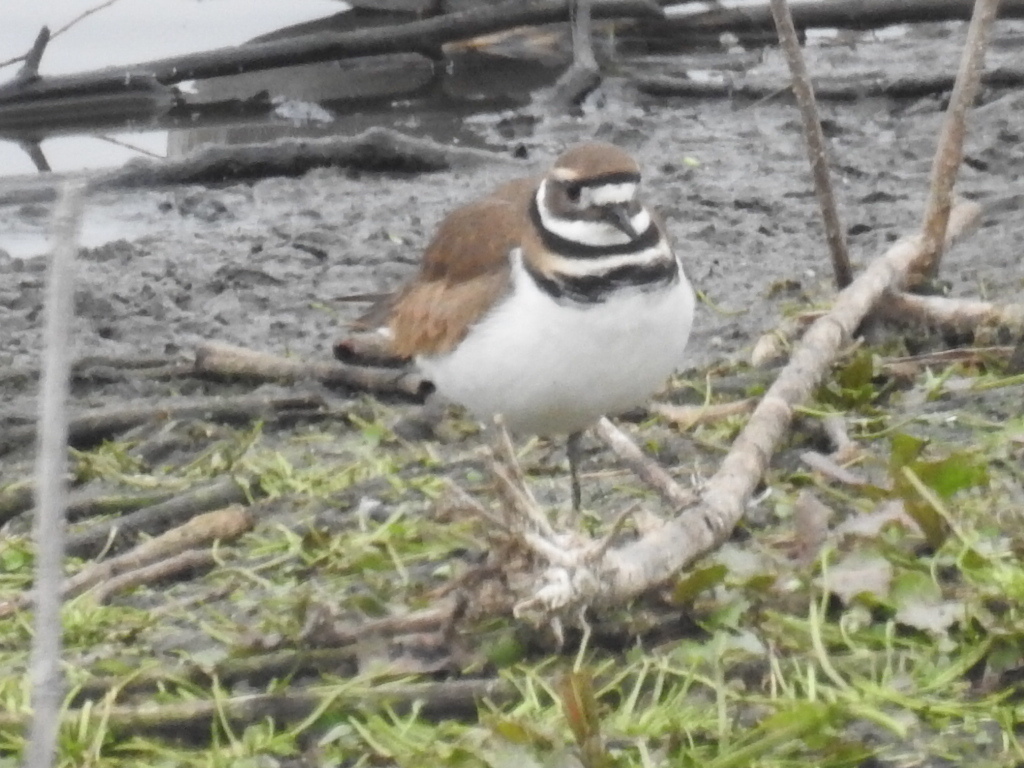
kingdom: Animalia
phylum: Chordata
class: Aves
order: Charadriiformes
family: Charadriidae
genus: Charadrius
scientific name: Charadrius vociferus
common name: Killdeer
